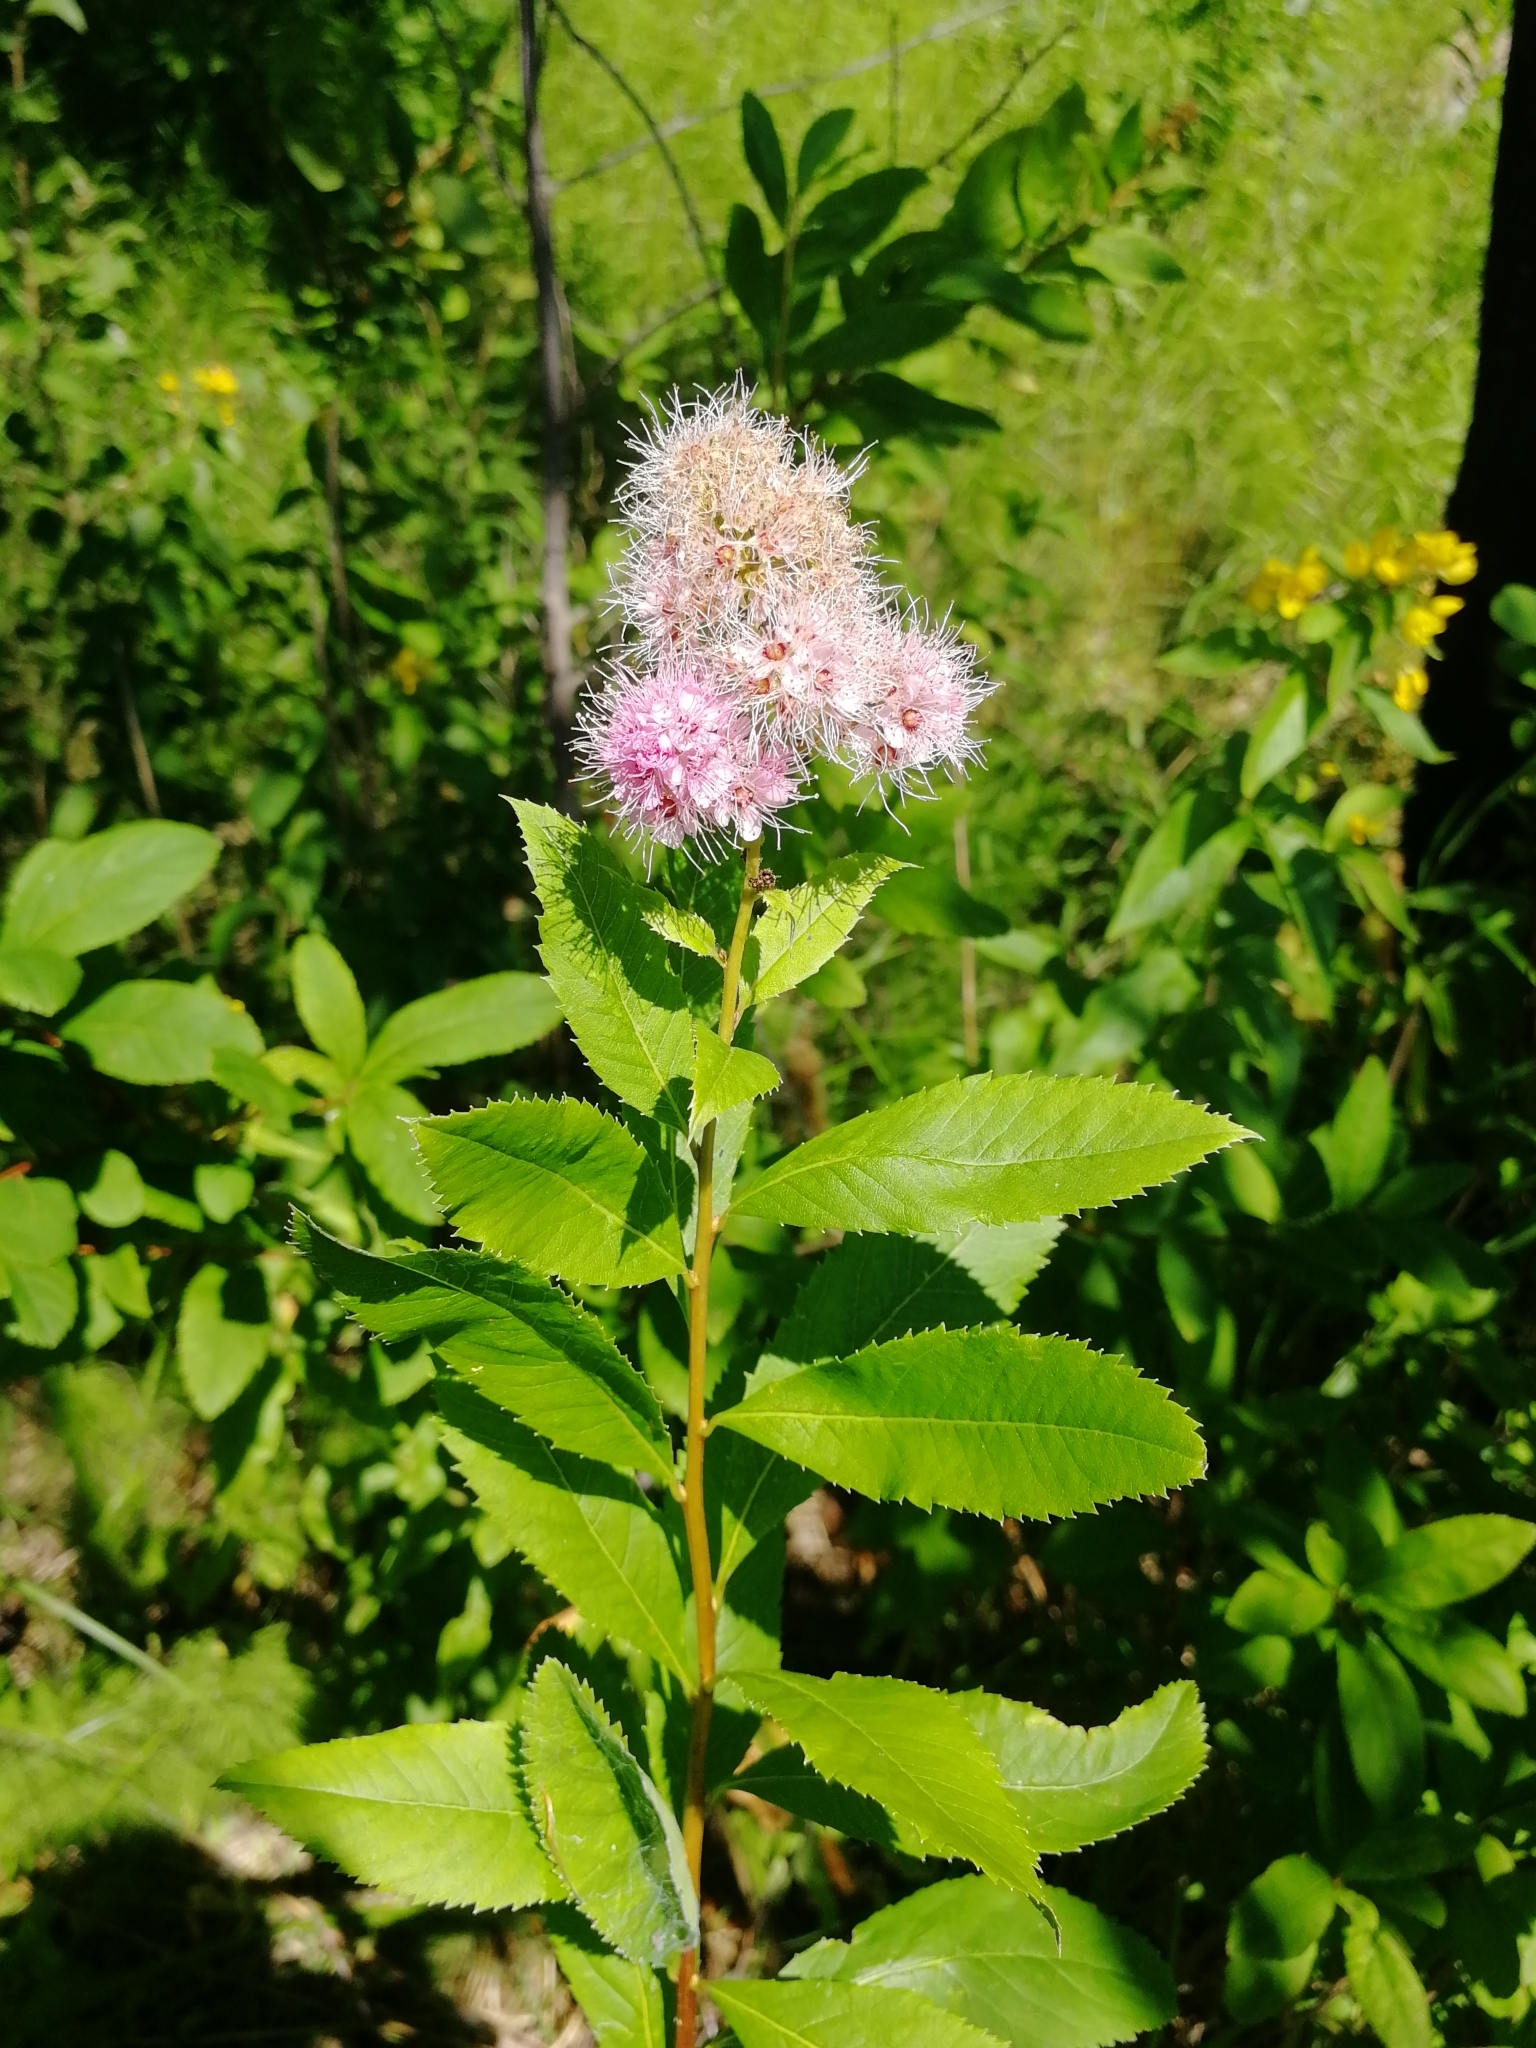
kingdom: Plantae
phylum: Tracheophyta
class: Magnoliopsida
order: Rosales
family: Rosaceae
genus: Spiraea
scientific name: Spiraea salicifolia
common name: Bridewort
